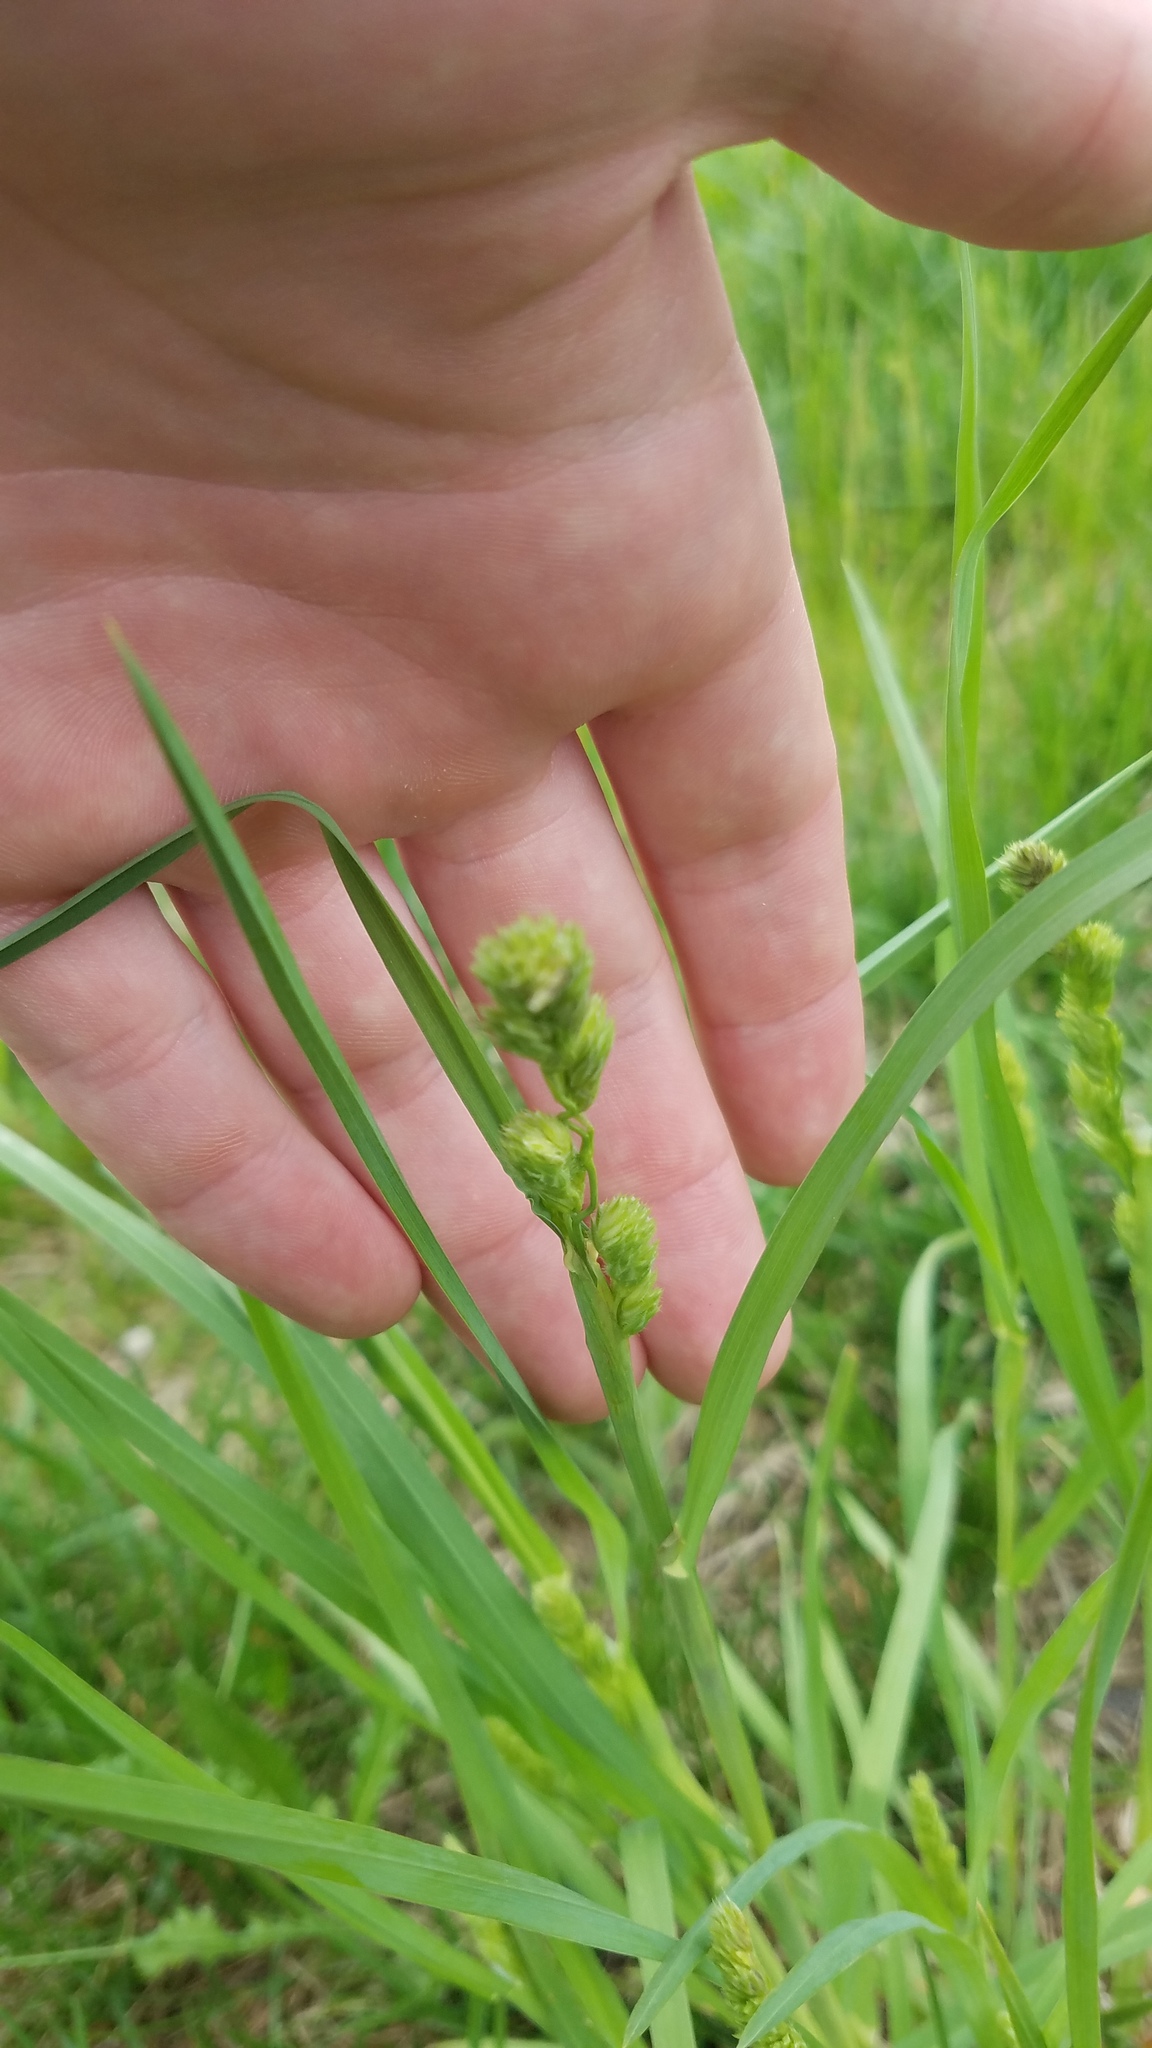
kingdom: Plantae
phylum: Tracheophyta
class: Liliopsida
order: Poales
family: Poaceae
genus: Dactylis
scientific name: Dactylis glomerata
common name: Orchardgrass
